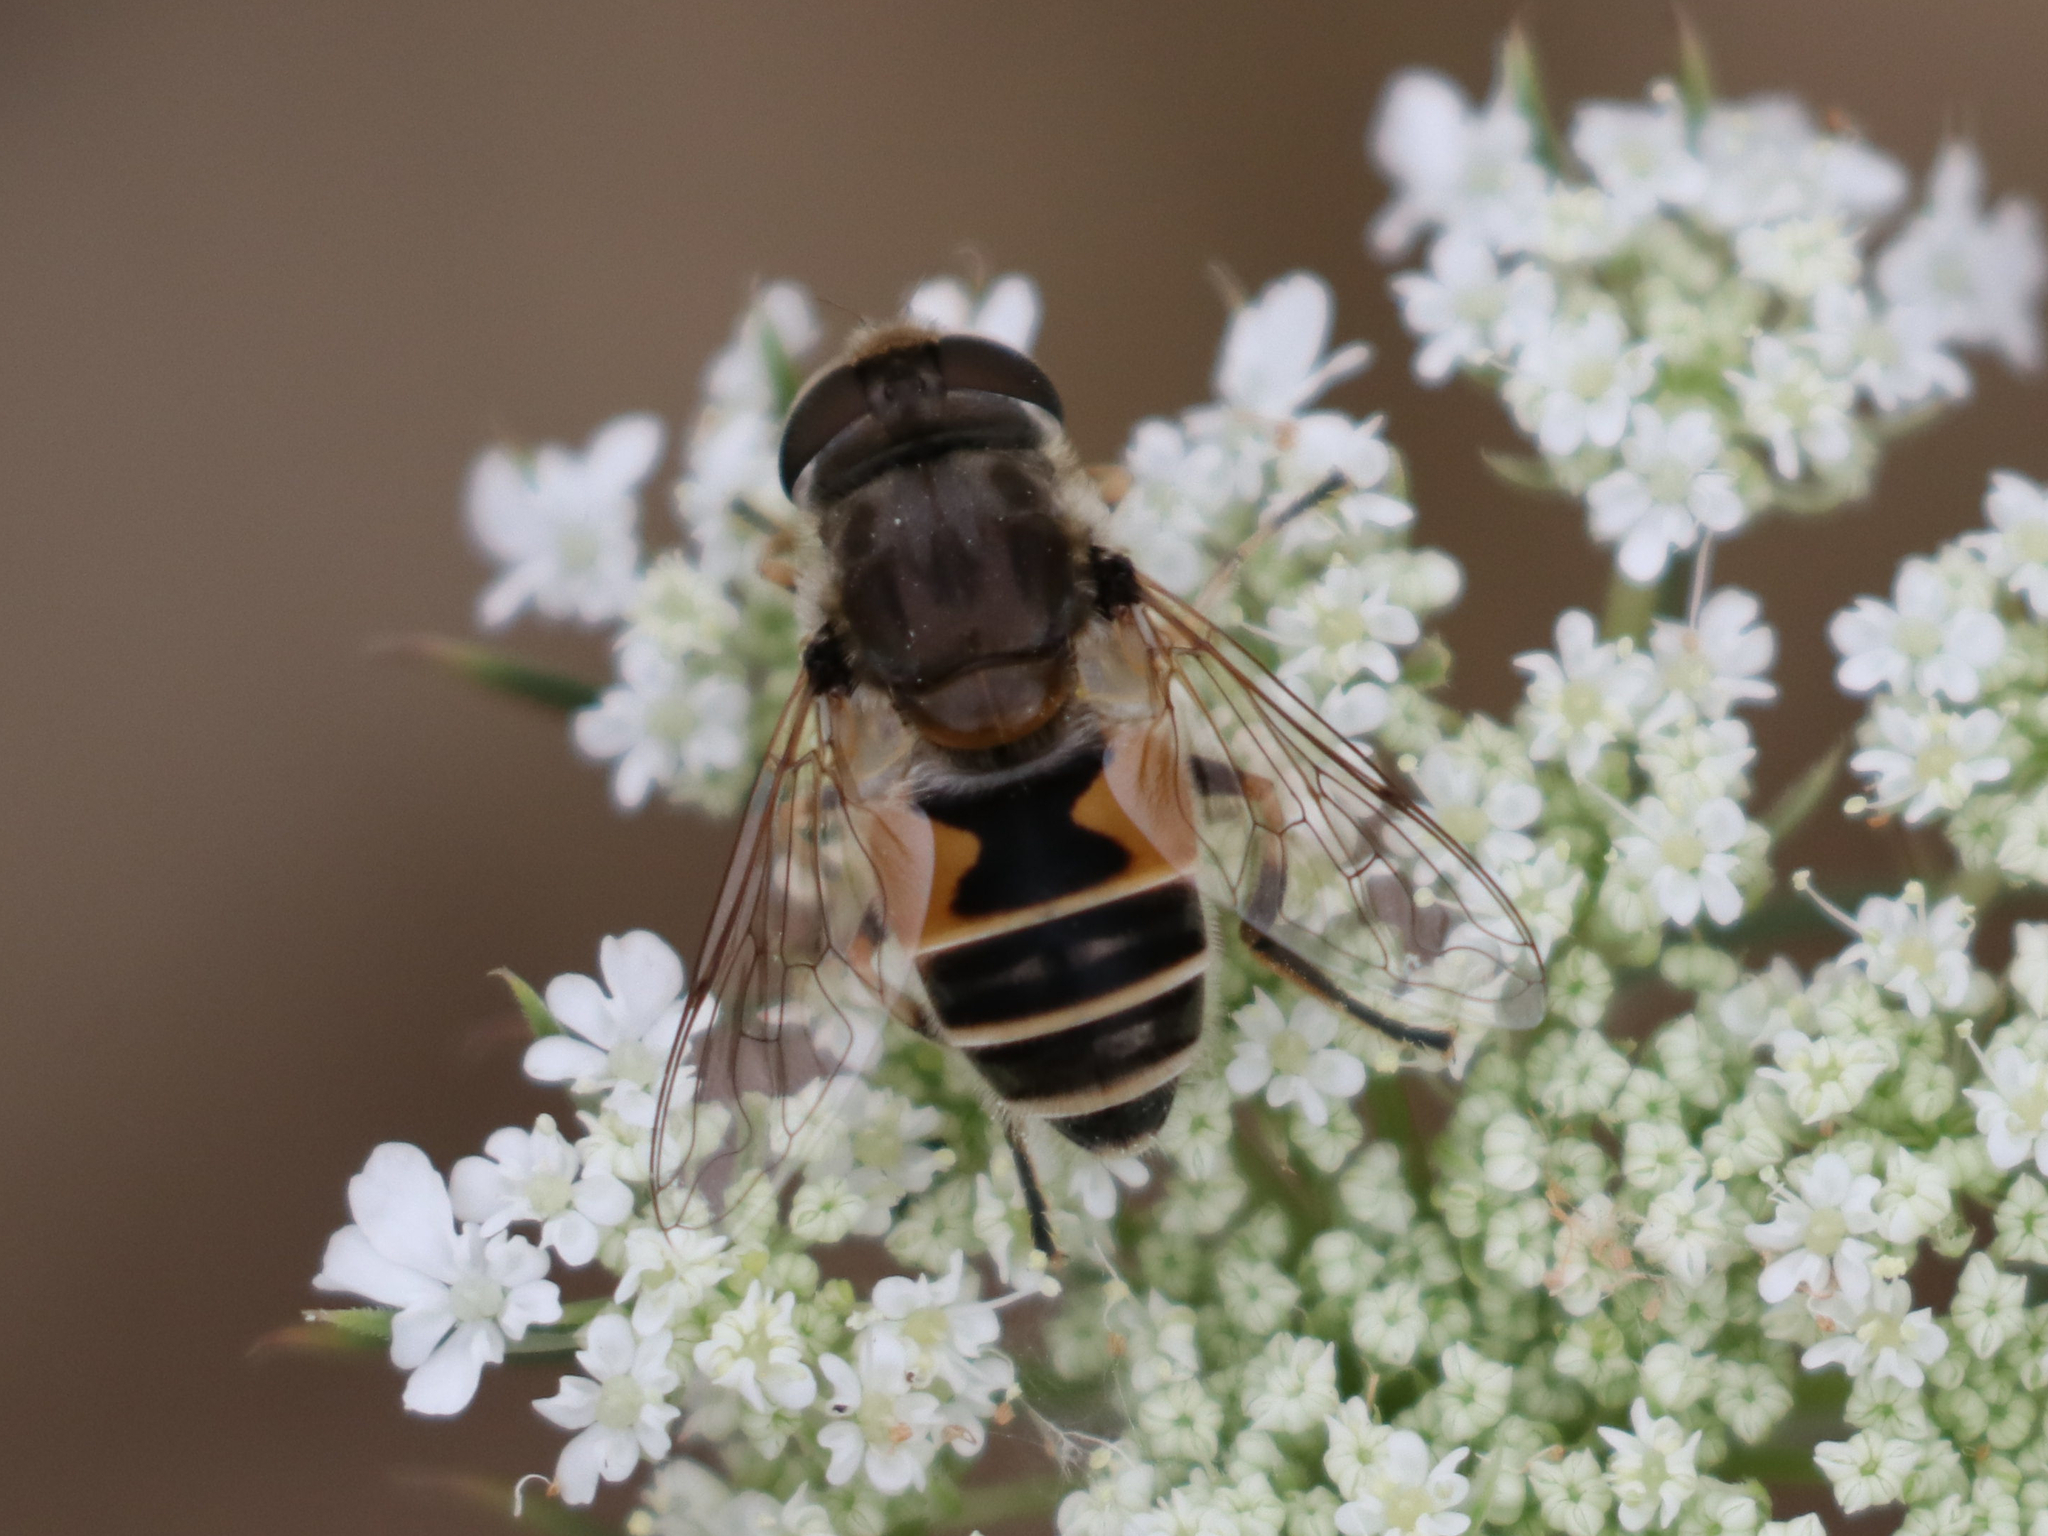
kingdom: Animalia
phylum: Arthropoda
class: Insecta
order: Diptera
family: Syrphidae
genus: Eristalis
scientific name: Eristalis arbustorum
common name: Hover fly
